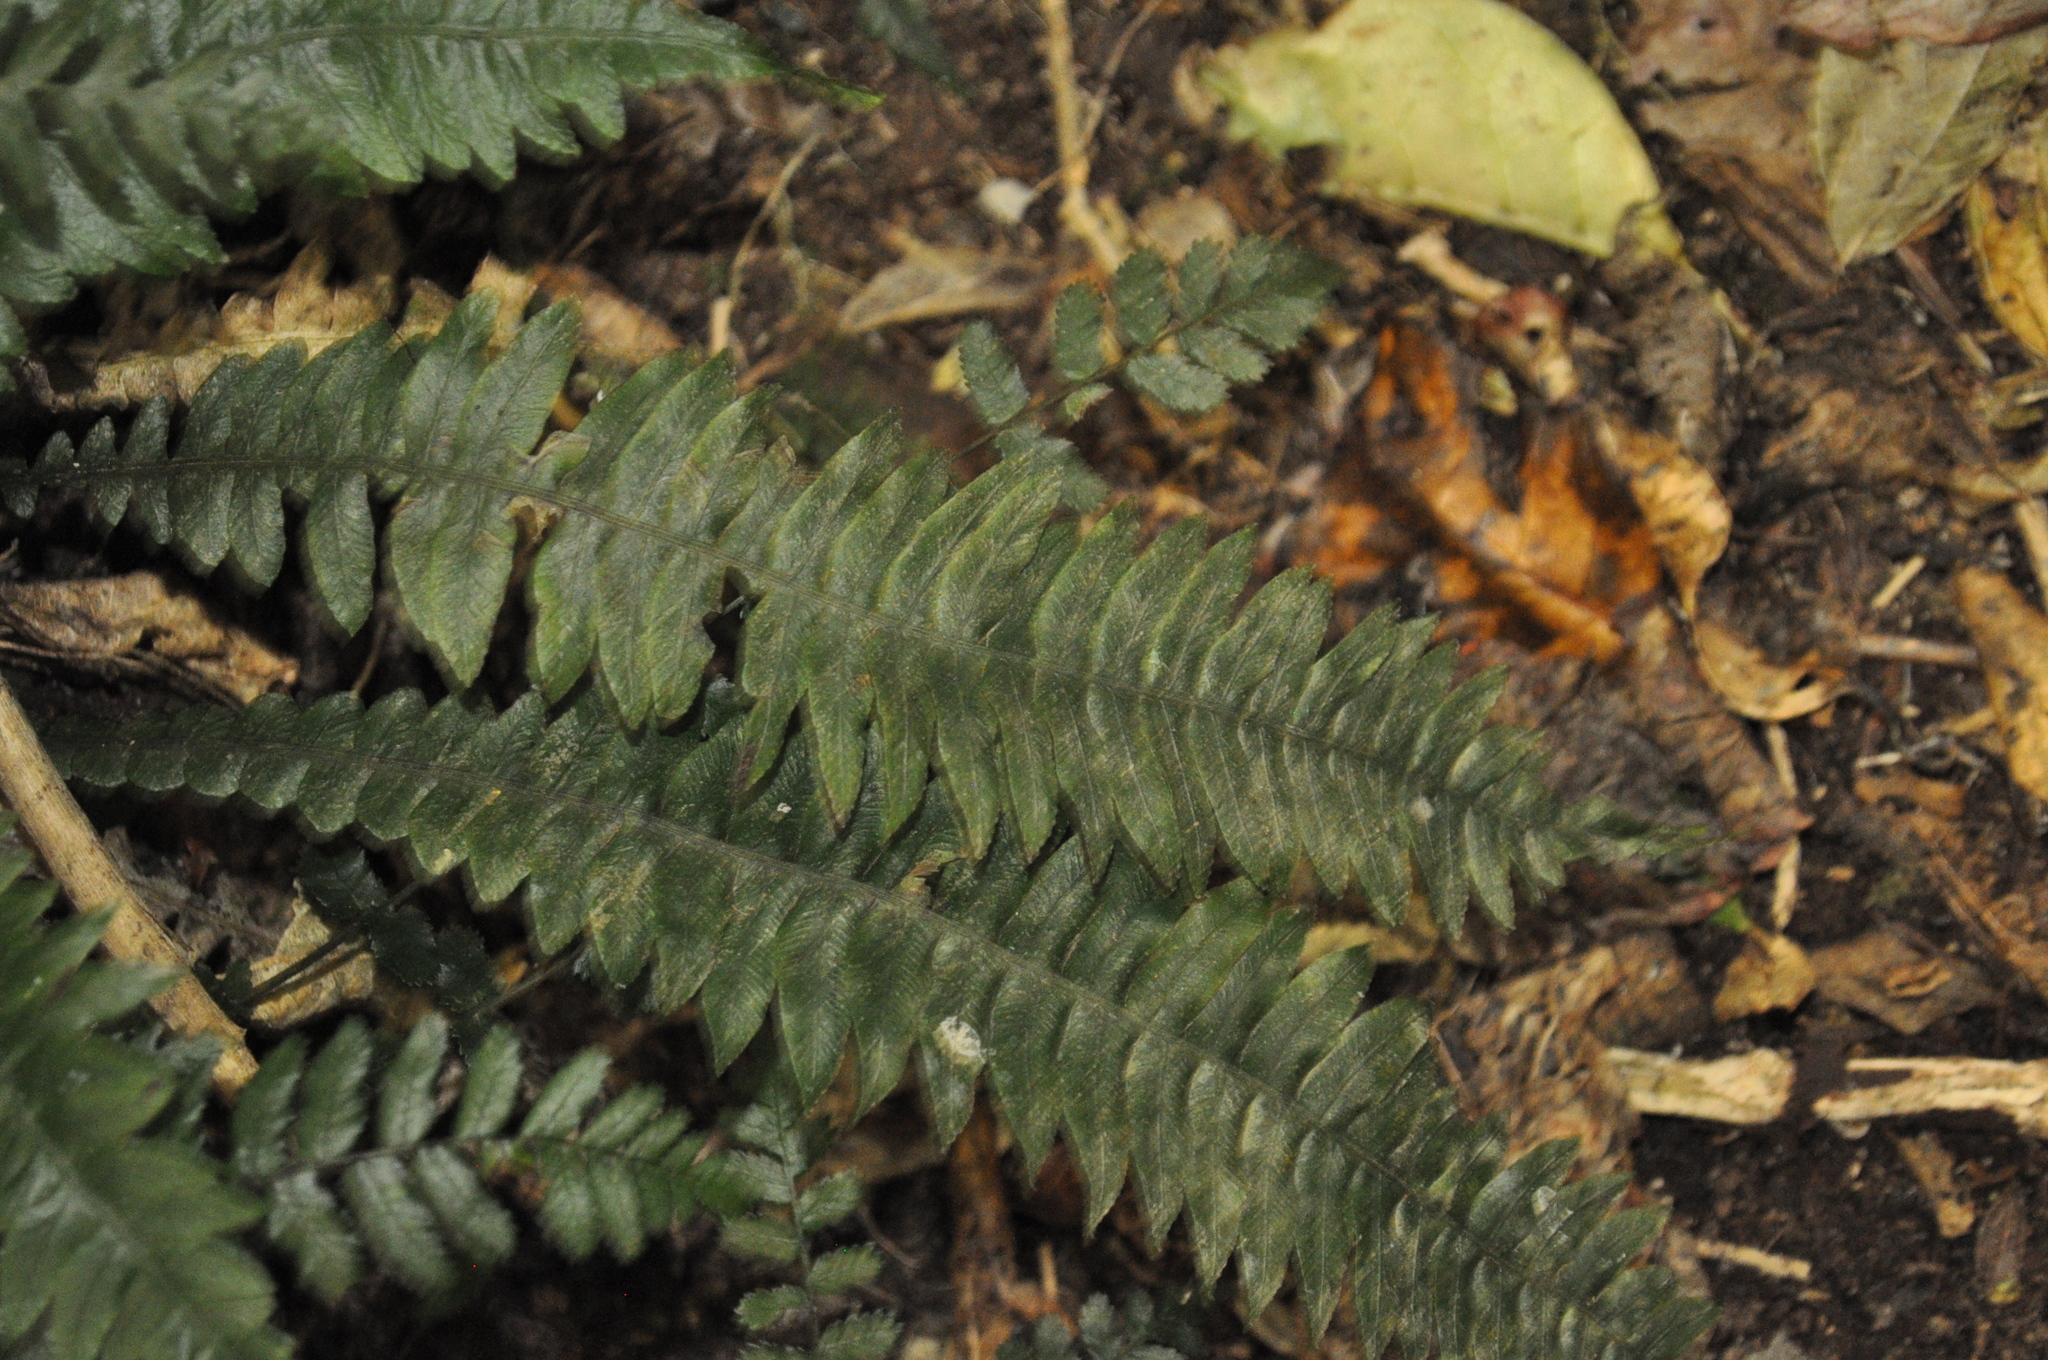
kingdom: Plantae
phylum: Tracheophyta
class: Polypodiopsida
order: Polypodiales
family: Blechnaceae
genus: Austroblechnum
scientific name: Austroblechnum lanceolatum
